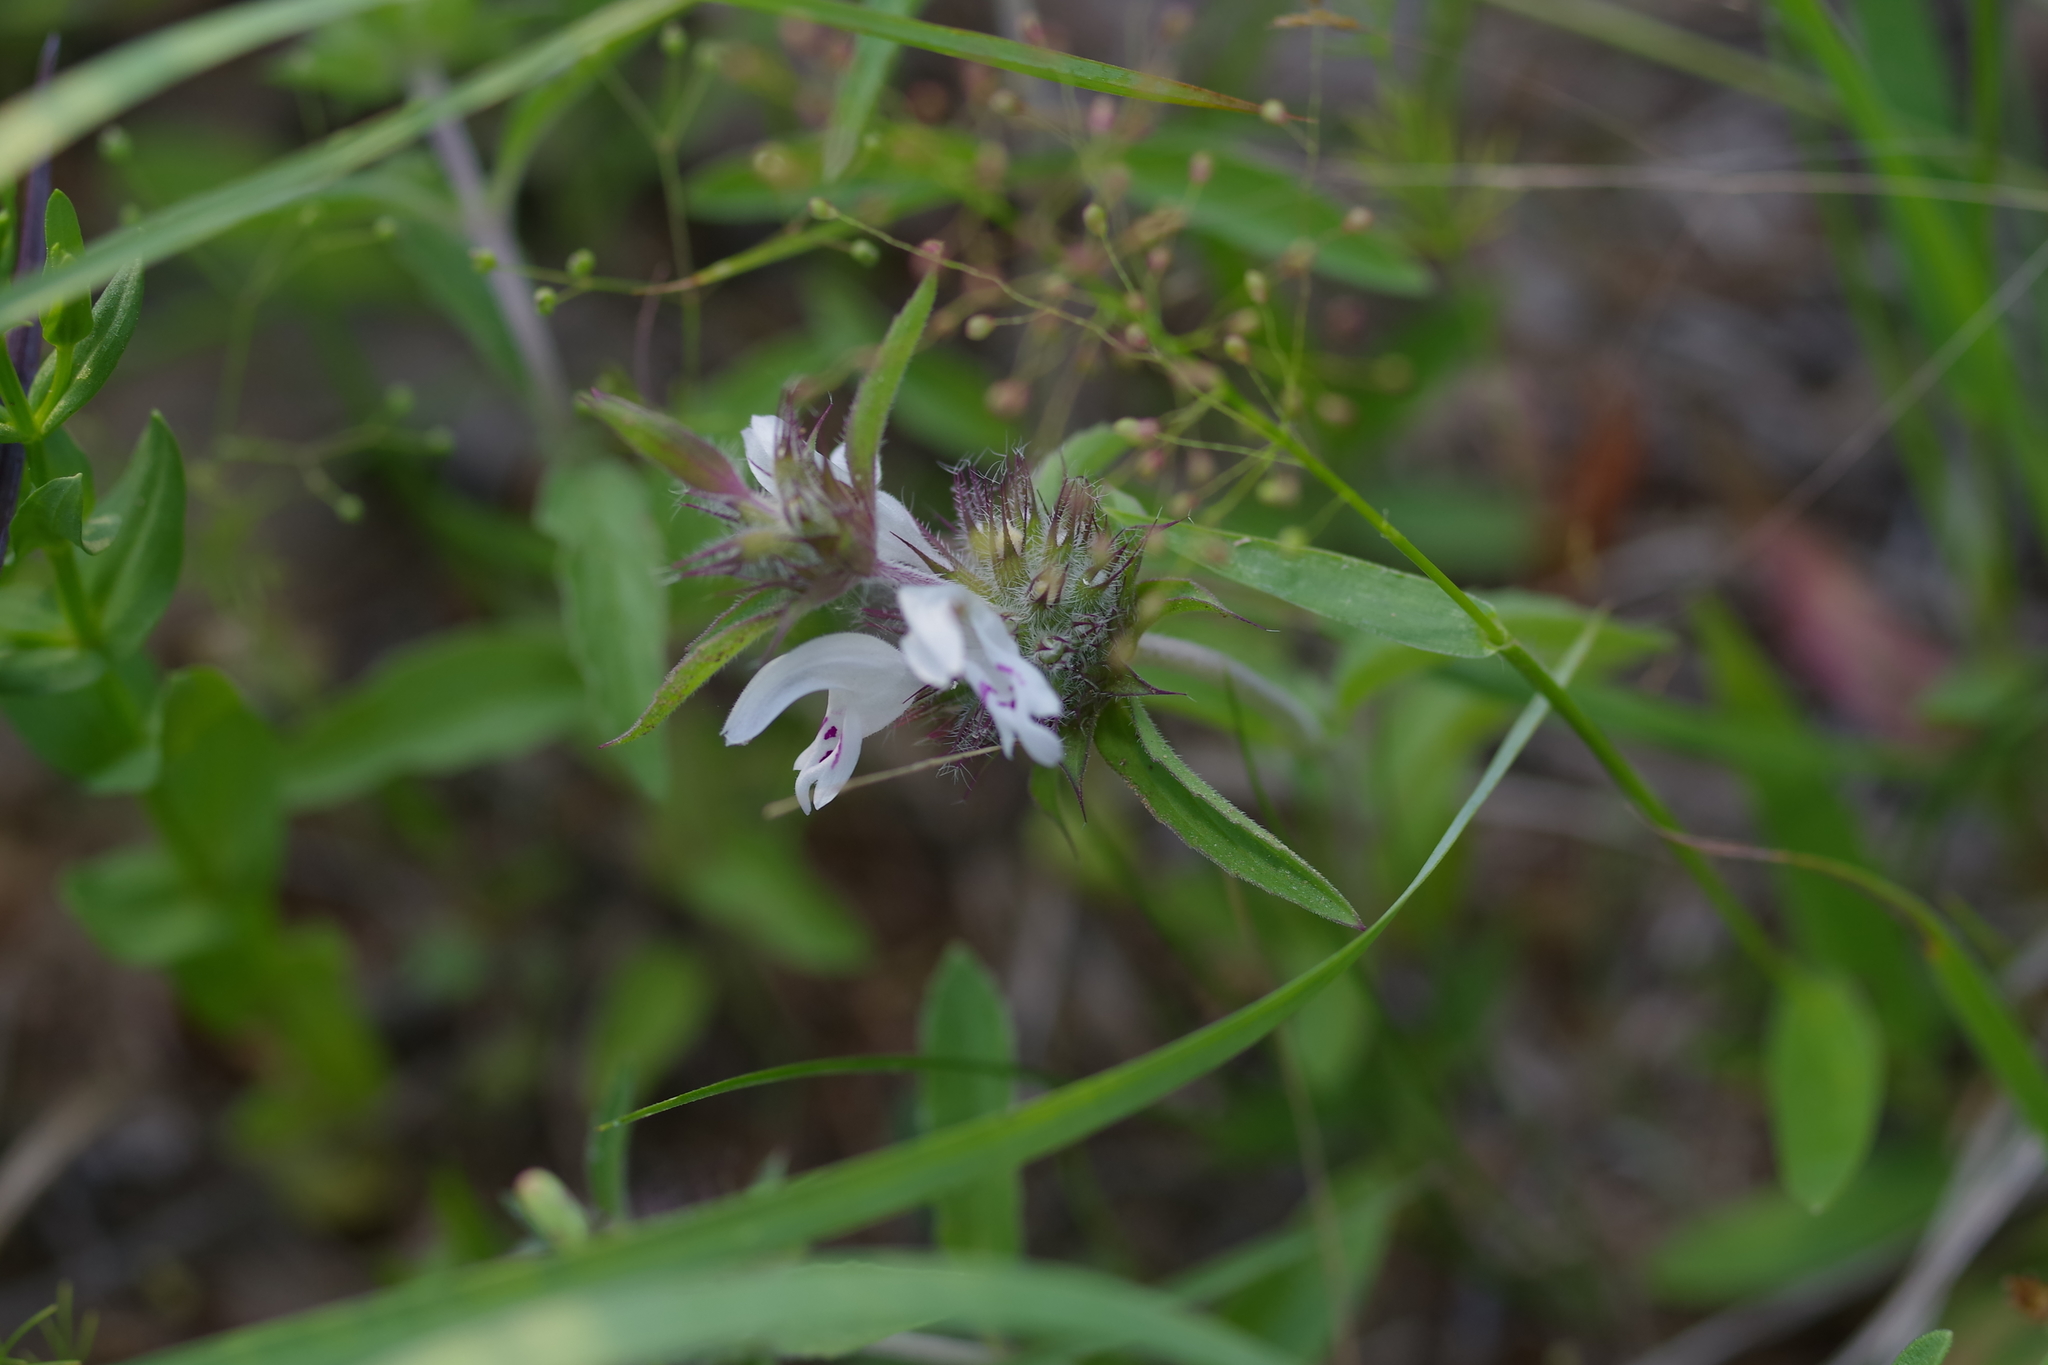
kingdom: Plantae
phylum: Tracheophyta
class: Magnoliopsida
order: Lamiales
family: Lamiaceae
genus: Monarda
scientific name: Monarda clinopodioides
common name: Basil beebalm
